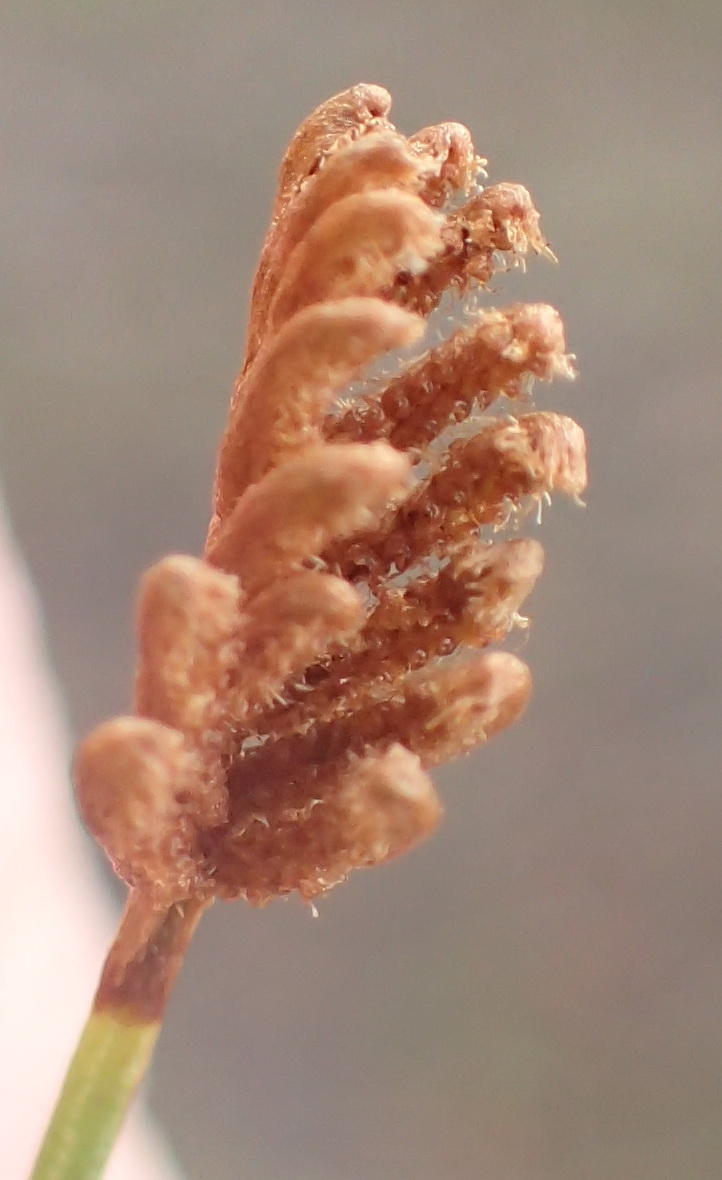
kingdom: Plantae
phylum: Tracheophyta
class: Polypodiopsida
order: Schizaeales
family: Schizaeaceae
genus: Microschizaea
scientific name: Microschizaea tenella
